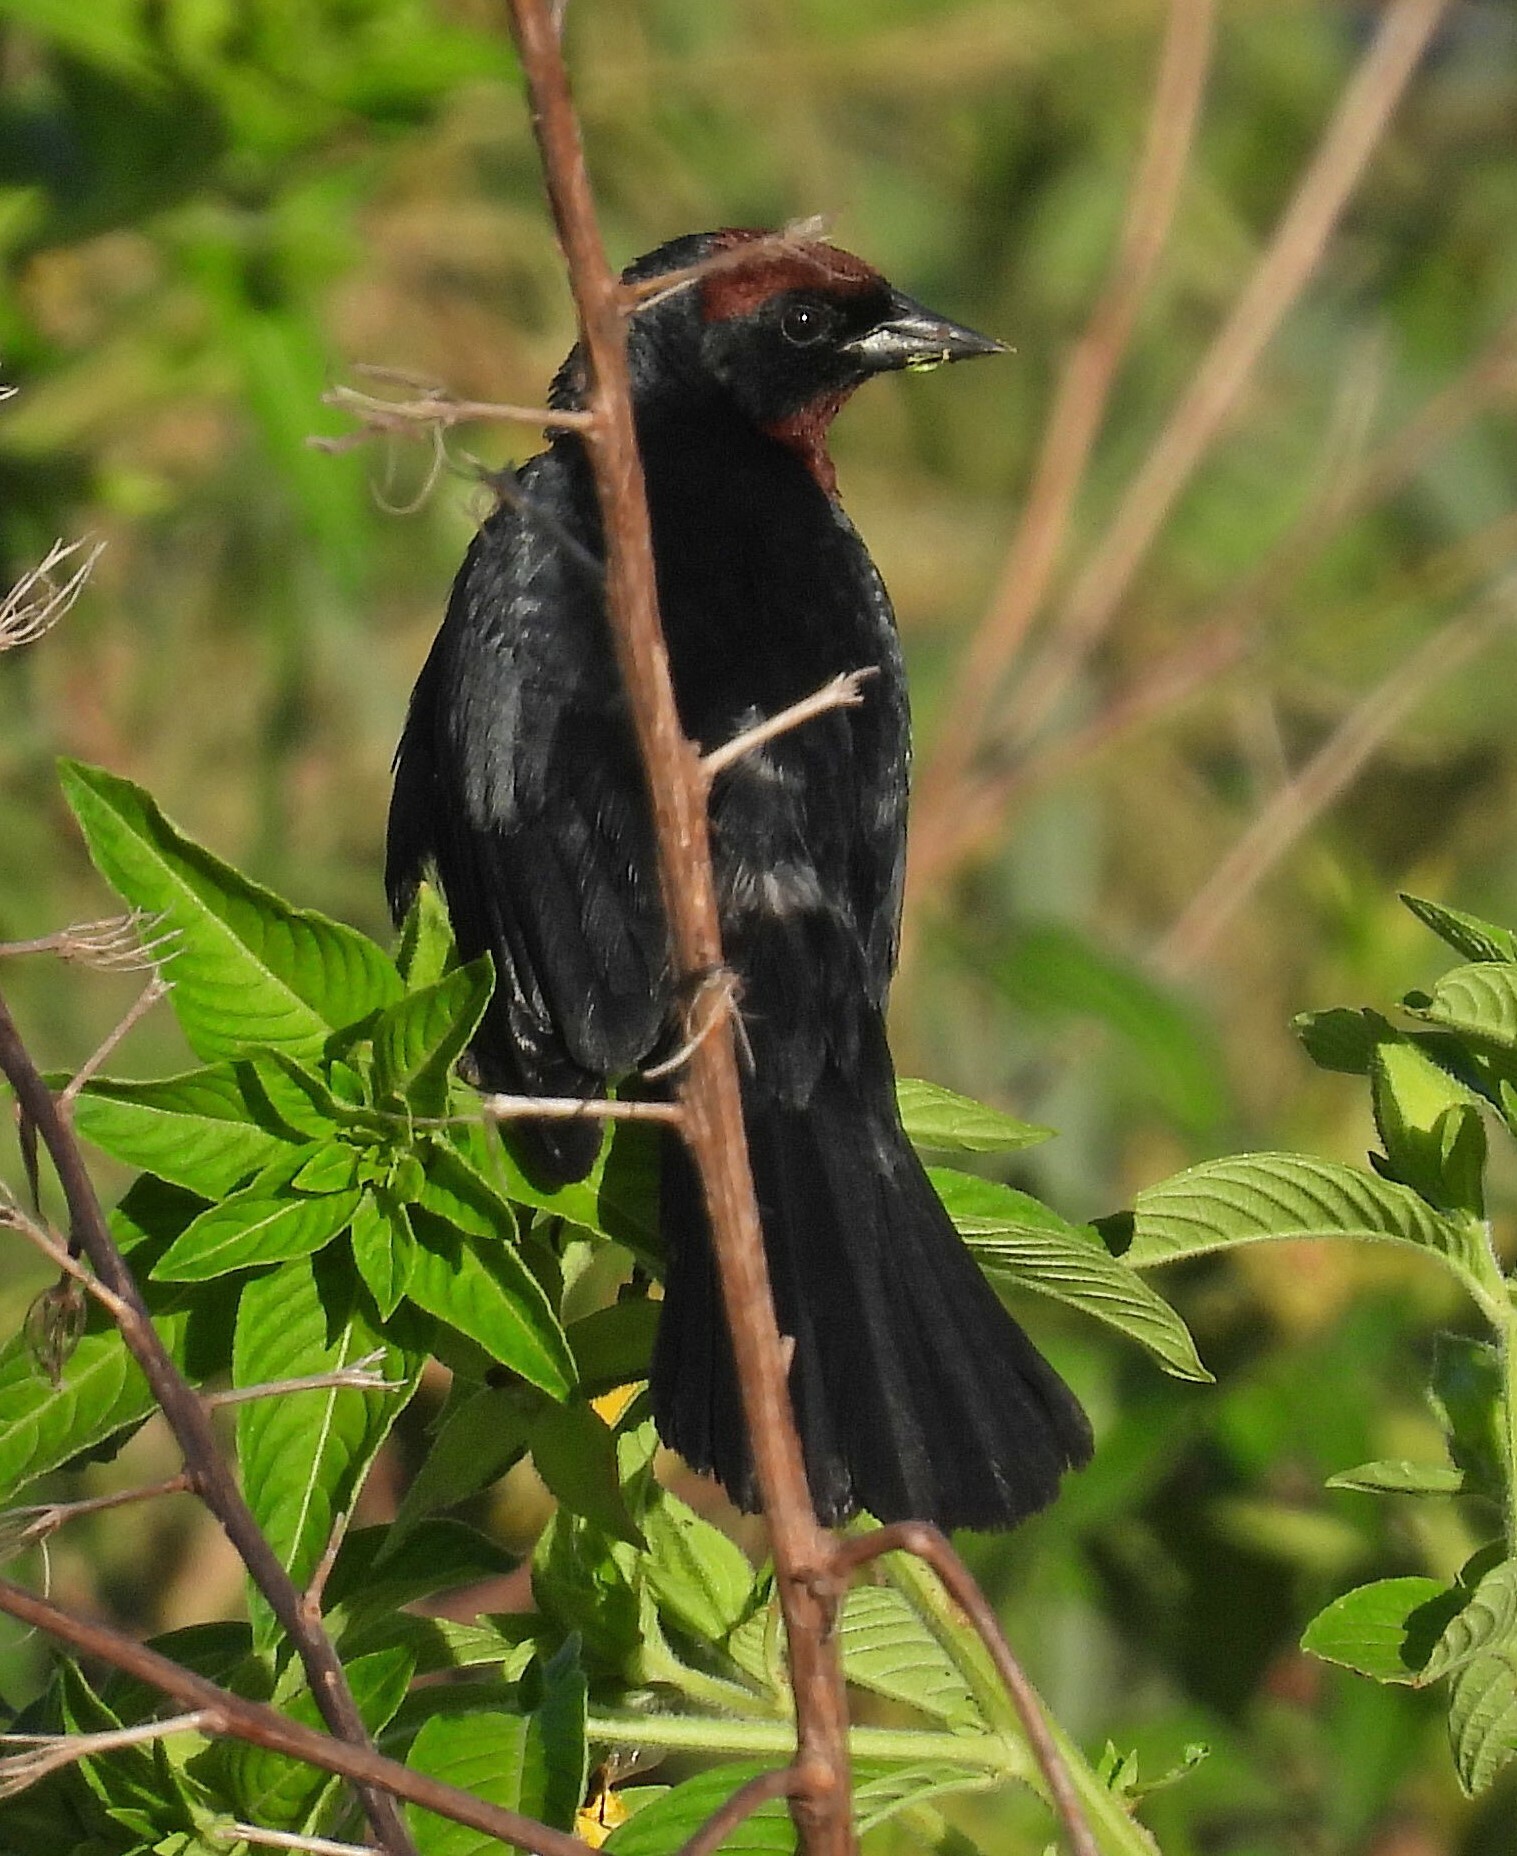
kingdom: Animalia
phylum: Chordata
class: Aves
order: Passeriformes
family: Icteridae
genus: Chrysomus
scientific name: Chrysomus ruficapillus
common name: Chestnut-capped blackbird
